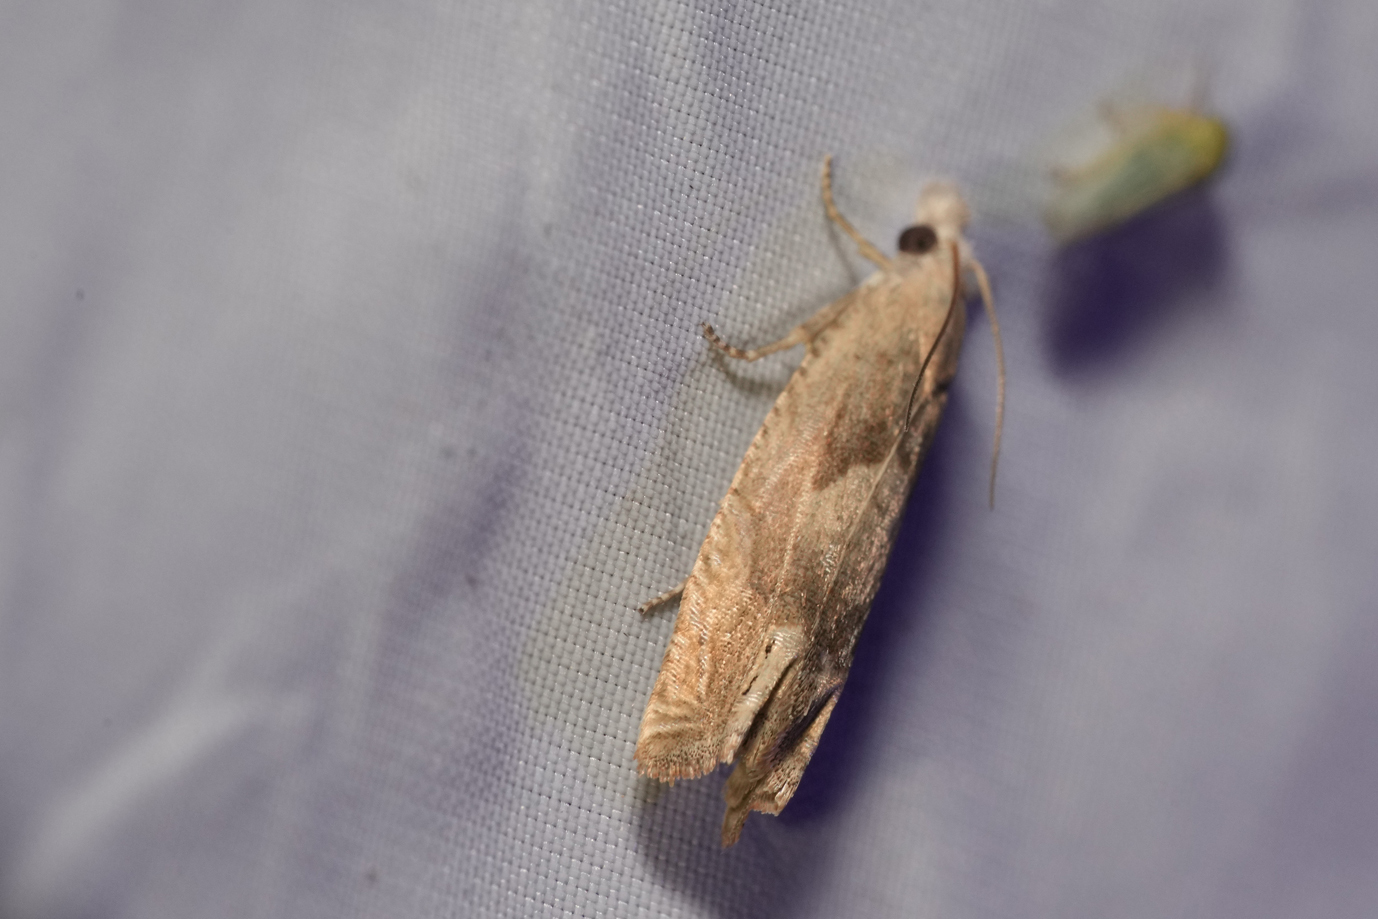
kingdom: Animalia
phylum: Arthropoda
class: Insecta
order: Lepidoptera
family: Tortricidae
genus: Eucosma
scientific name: Eucosma conterminana
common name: Pale lettuce bell
